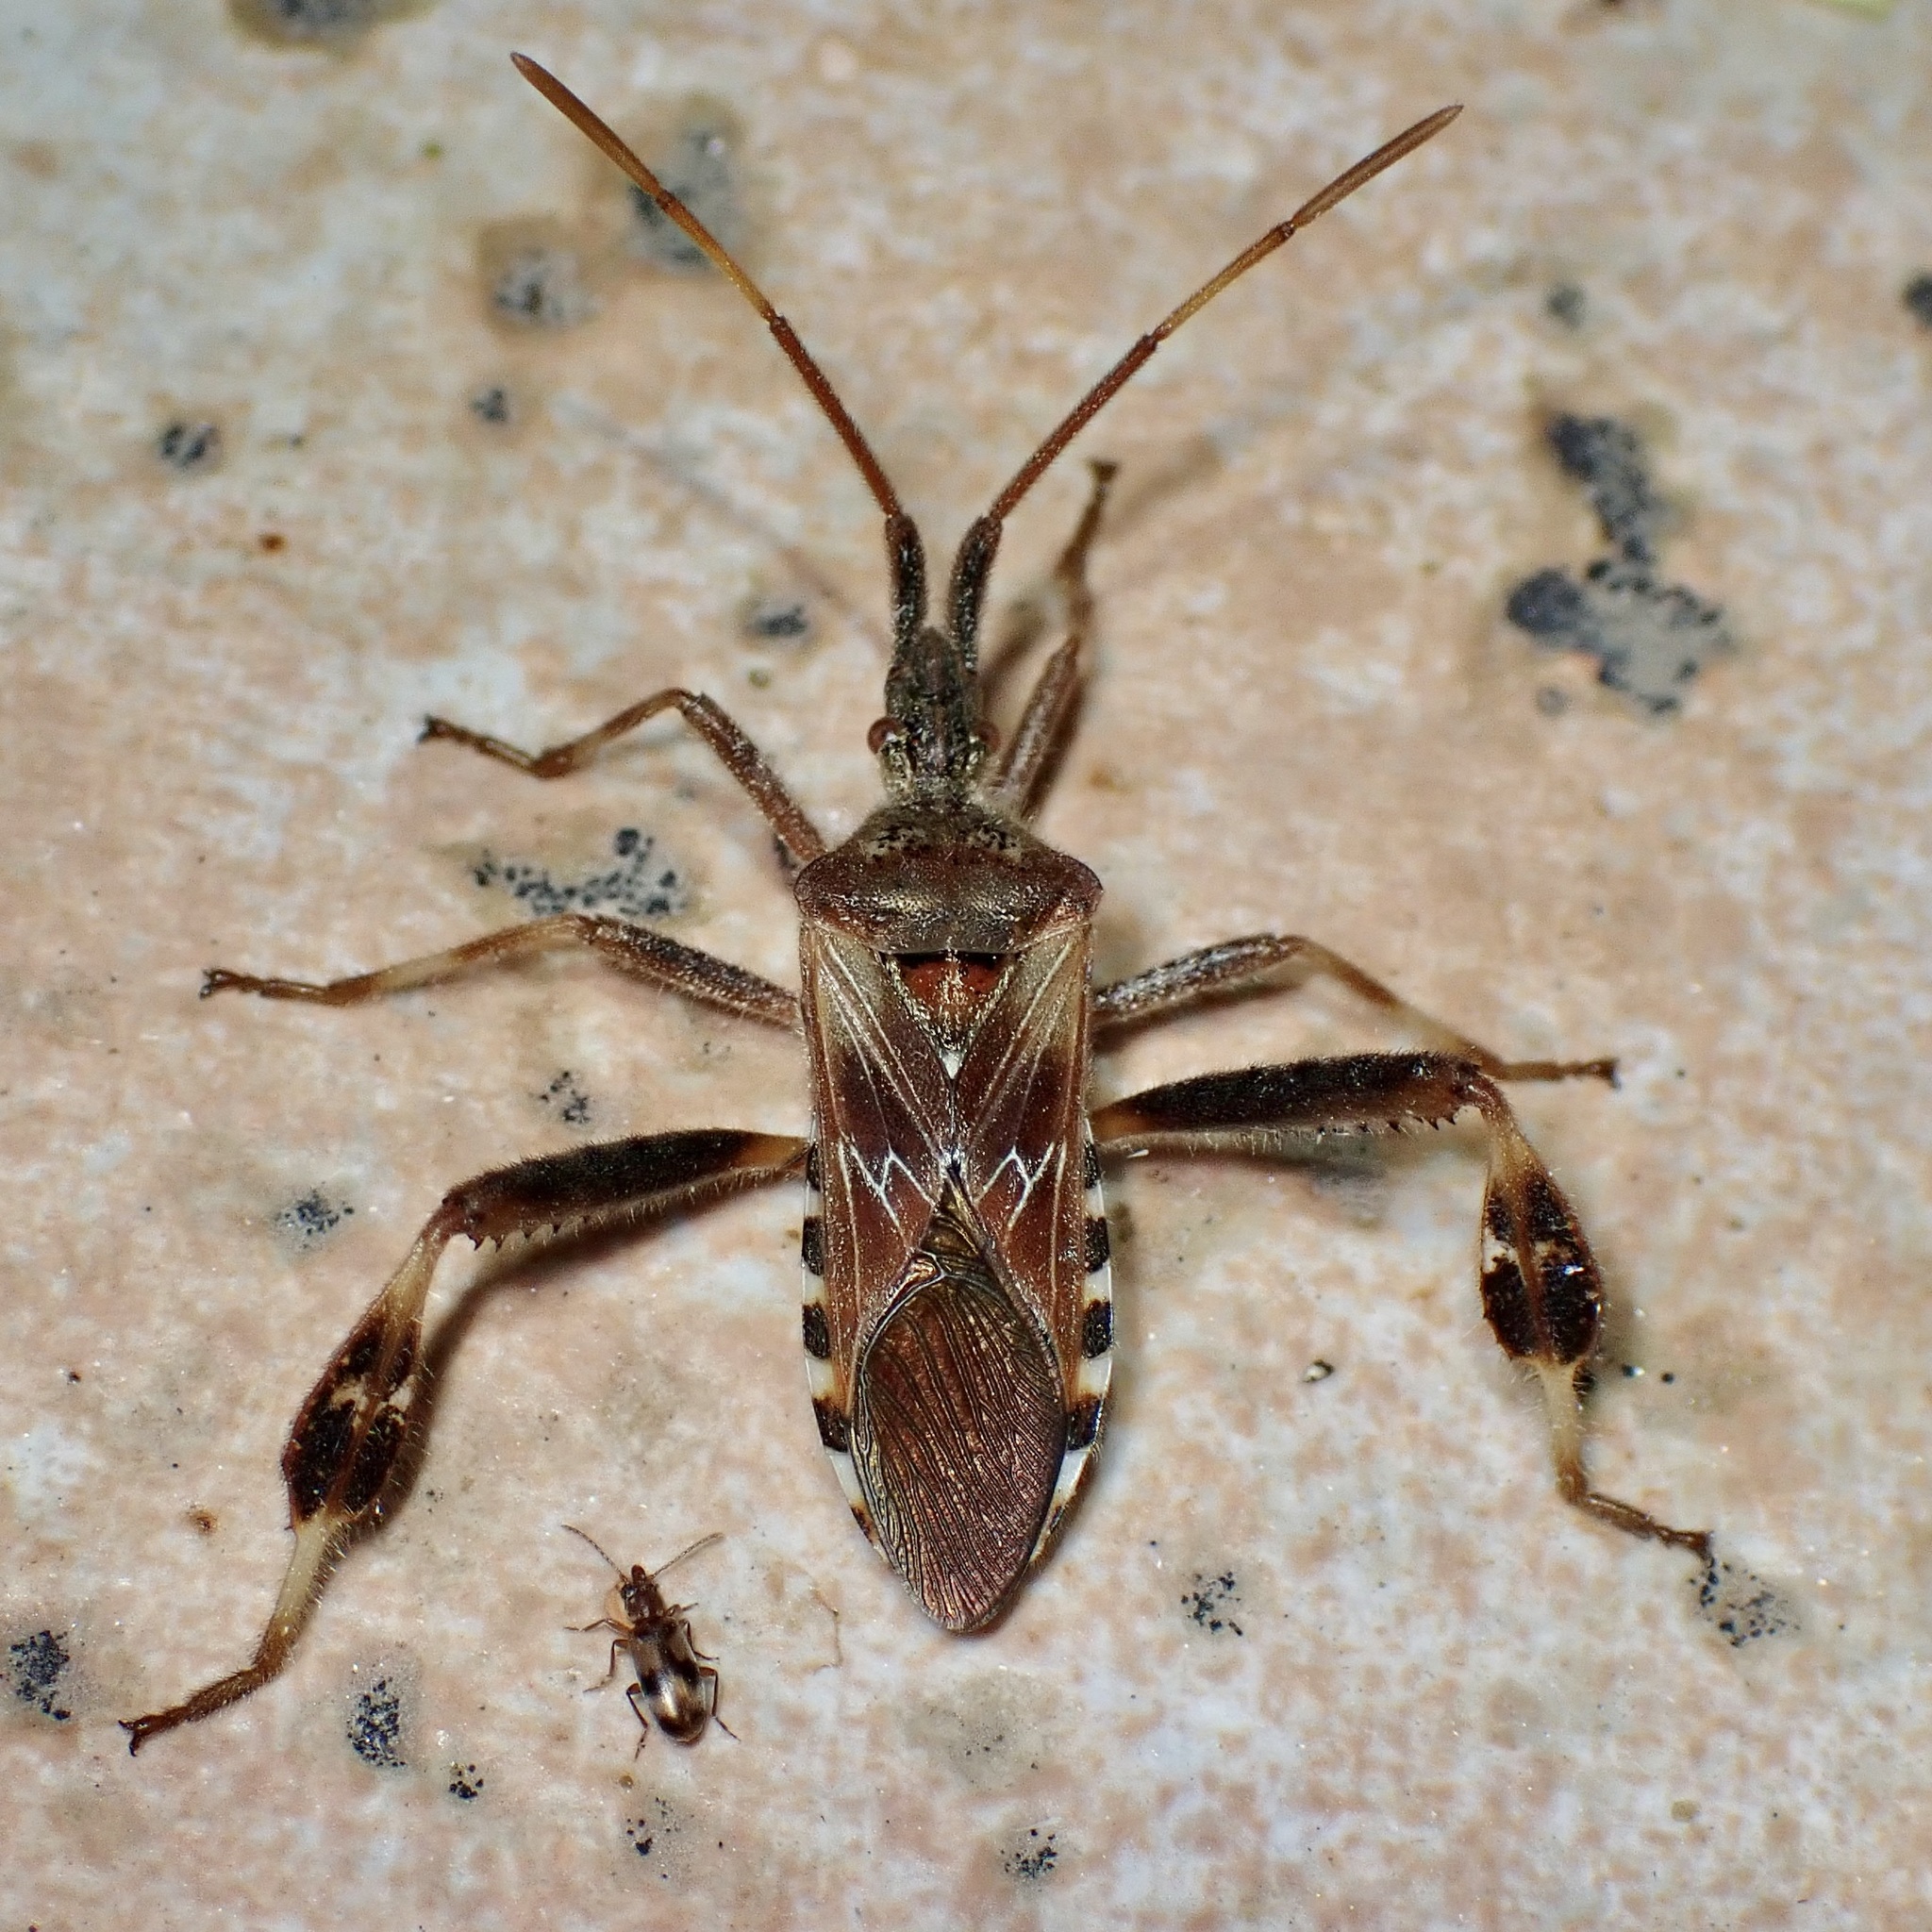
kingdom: Animalia
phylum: Arthropoda
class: Insecta
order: Hemiptera
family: Coreidae
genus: Leptoglossus
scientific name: Leptoglossus occidentalis
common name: Western conifer-seed bug
